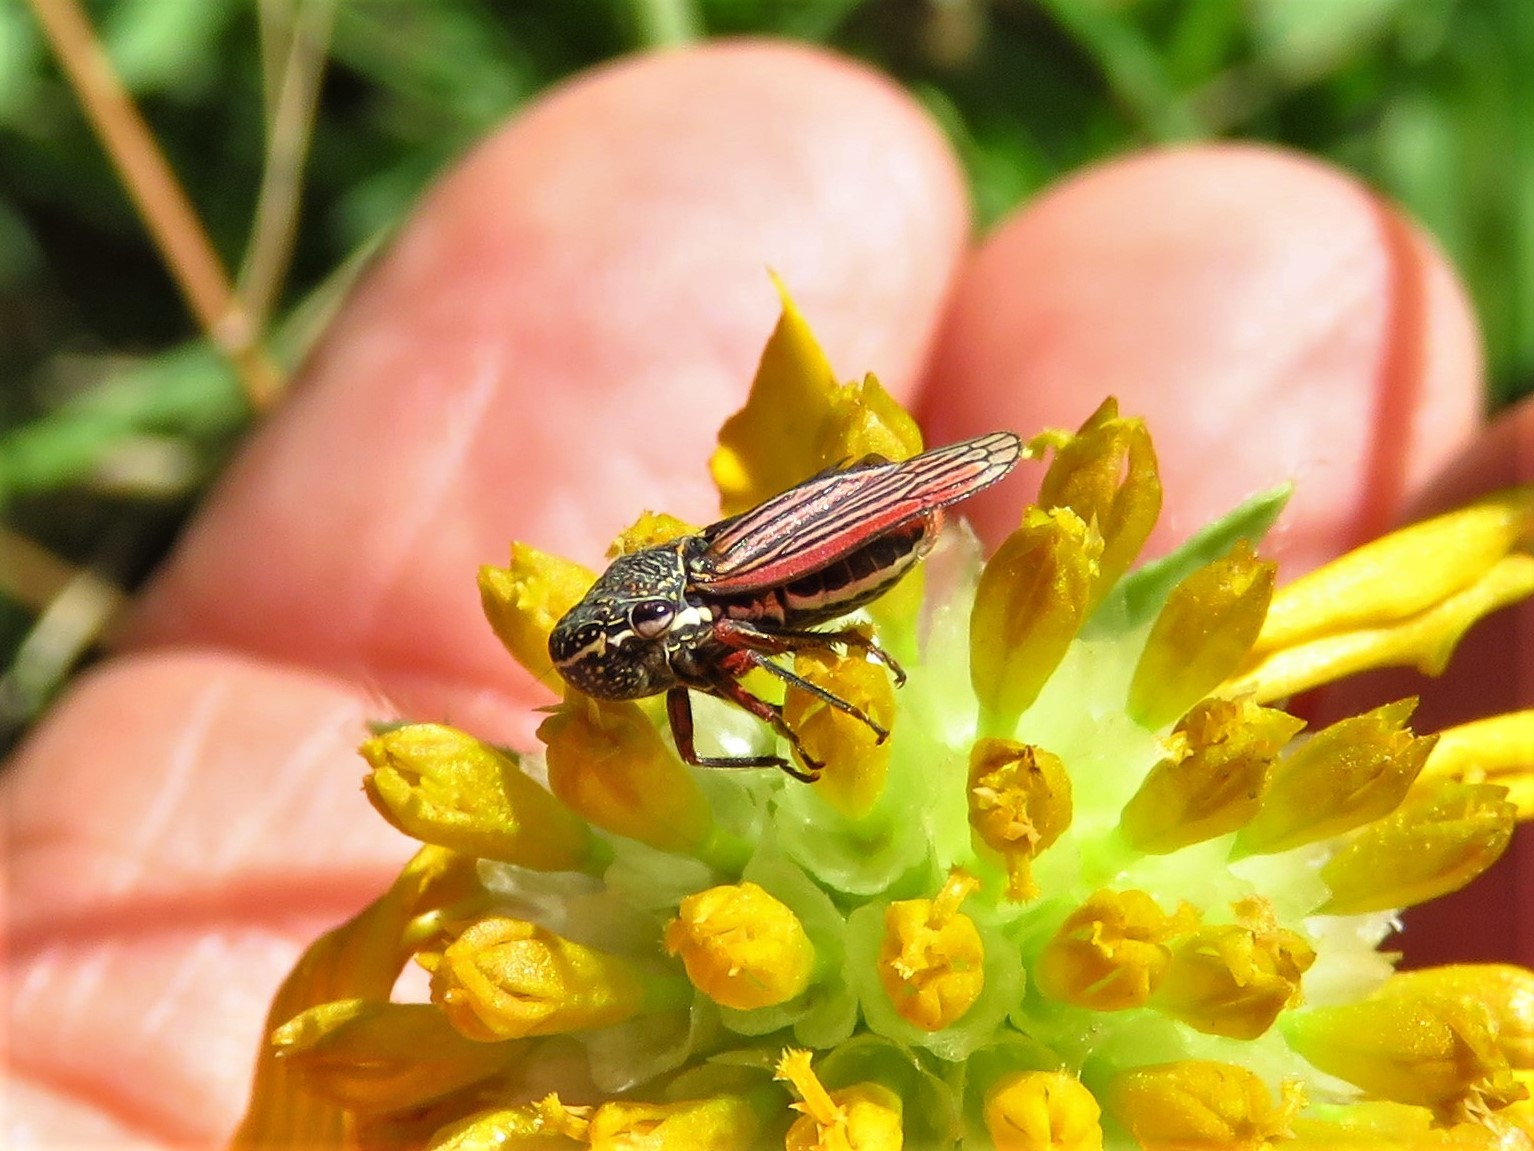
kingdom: Animalia
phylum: Arthropoda
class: Insecta
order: Hemiptera
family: Cicadellidae
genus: Cuerna
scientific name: Cuerna costalis
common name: Lateral-lined sharpshooter
